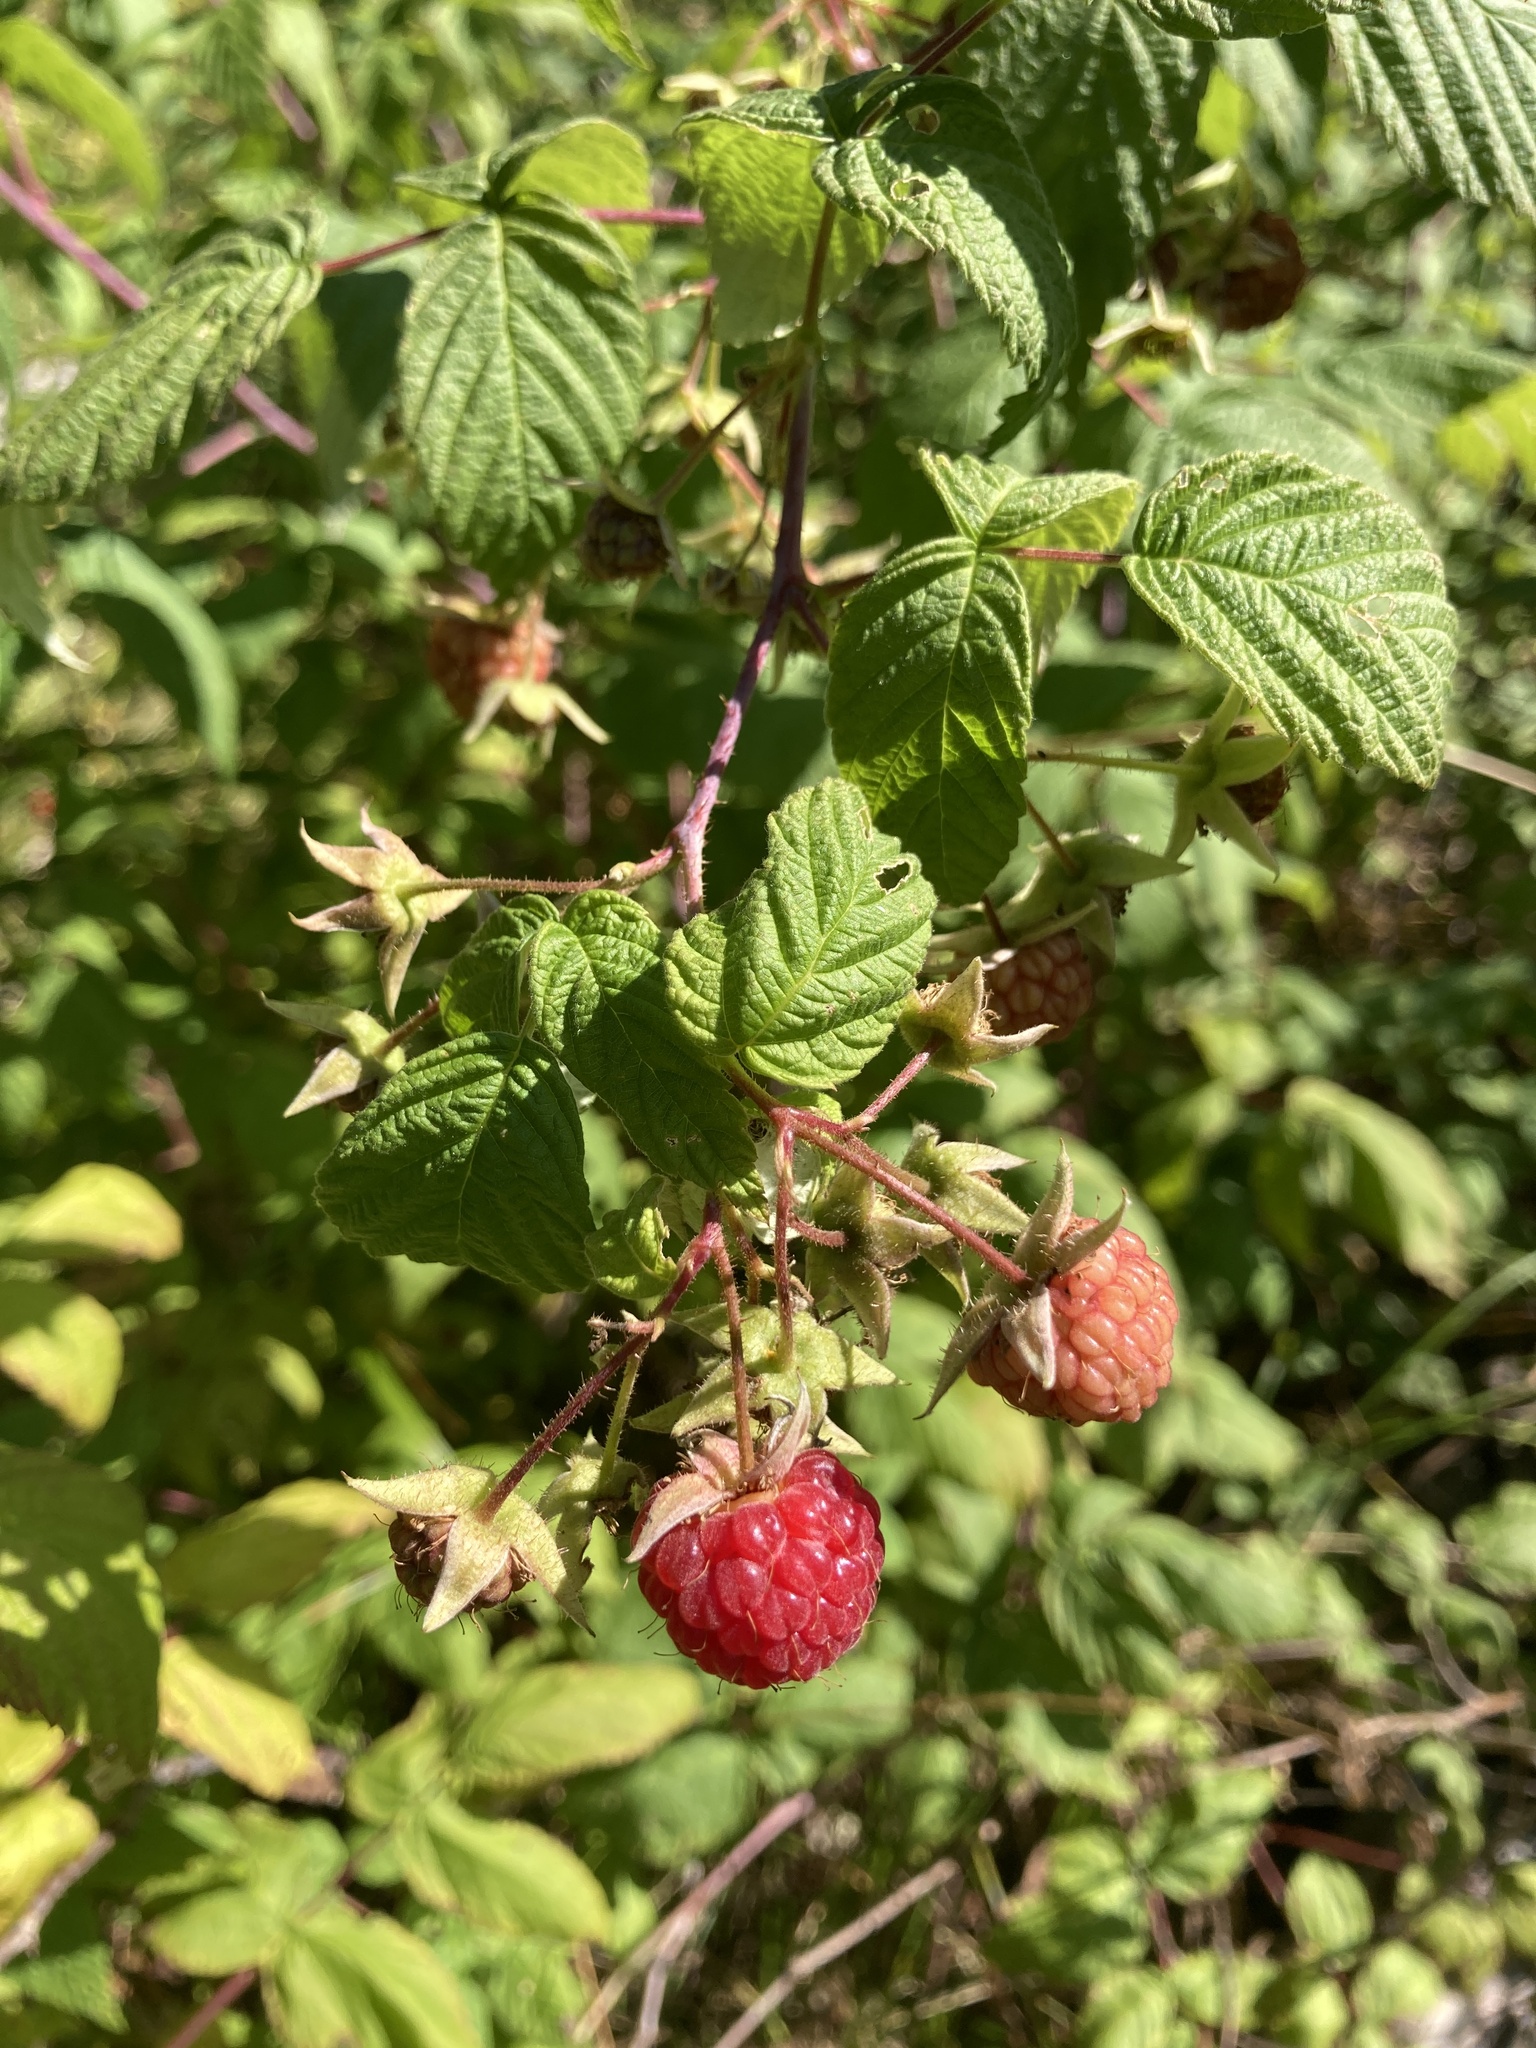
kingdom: Plantae
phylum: Tracheophyta
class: Magnoliopsida
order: Rosales
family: Rosaceae
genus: Rubus
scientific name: Rubus idaeus
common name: Raspberry
